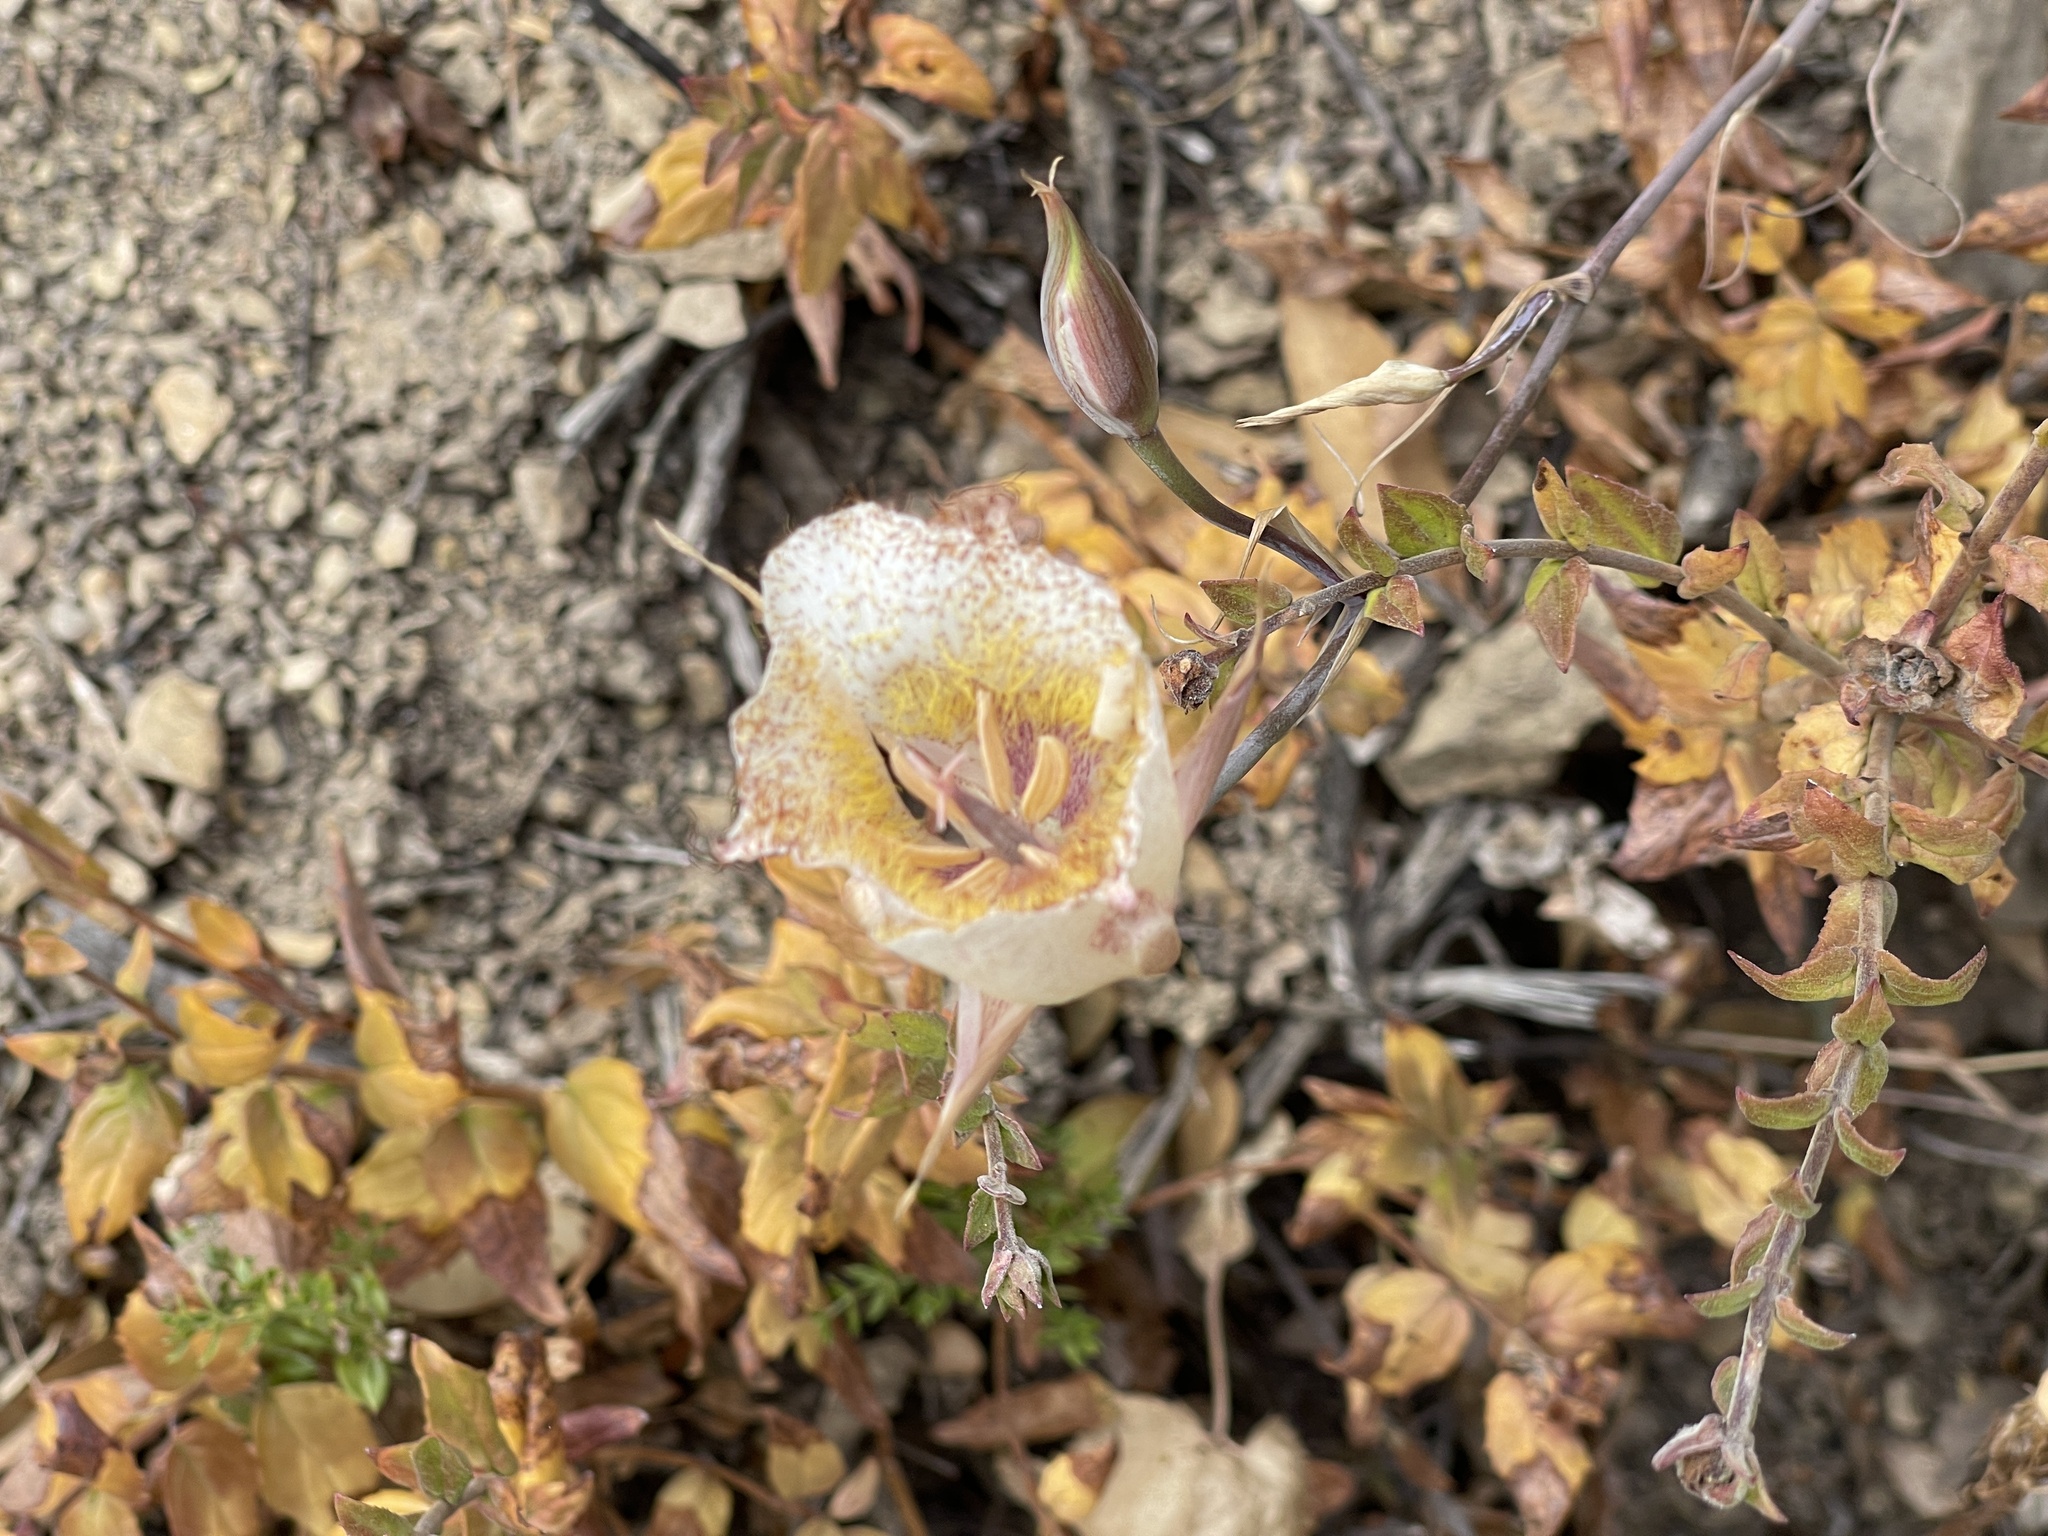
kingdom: Plantae
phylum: Tracheophyta
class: Liliopsida
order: Liliales
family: Liliaceae
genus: Calochortus
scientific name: Calochortus fimbriatus
